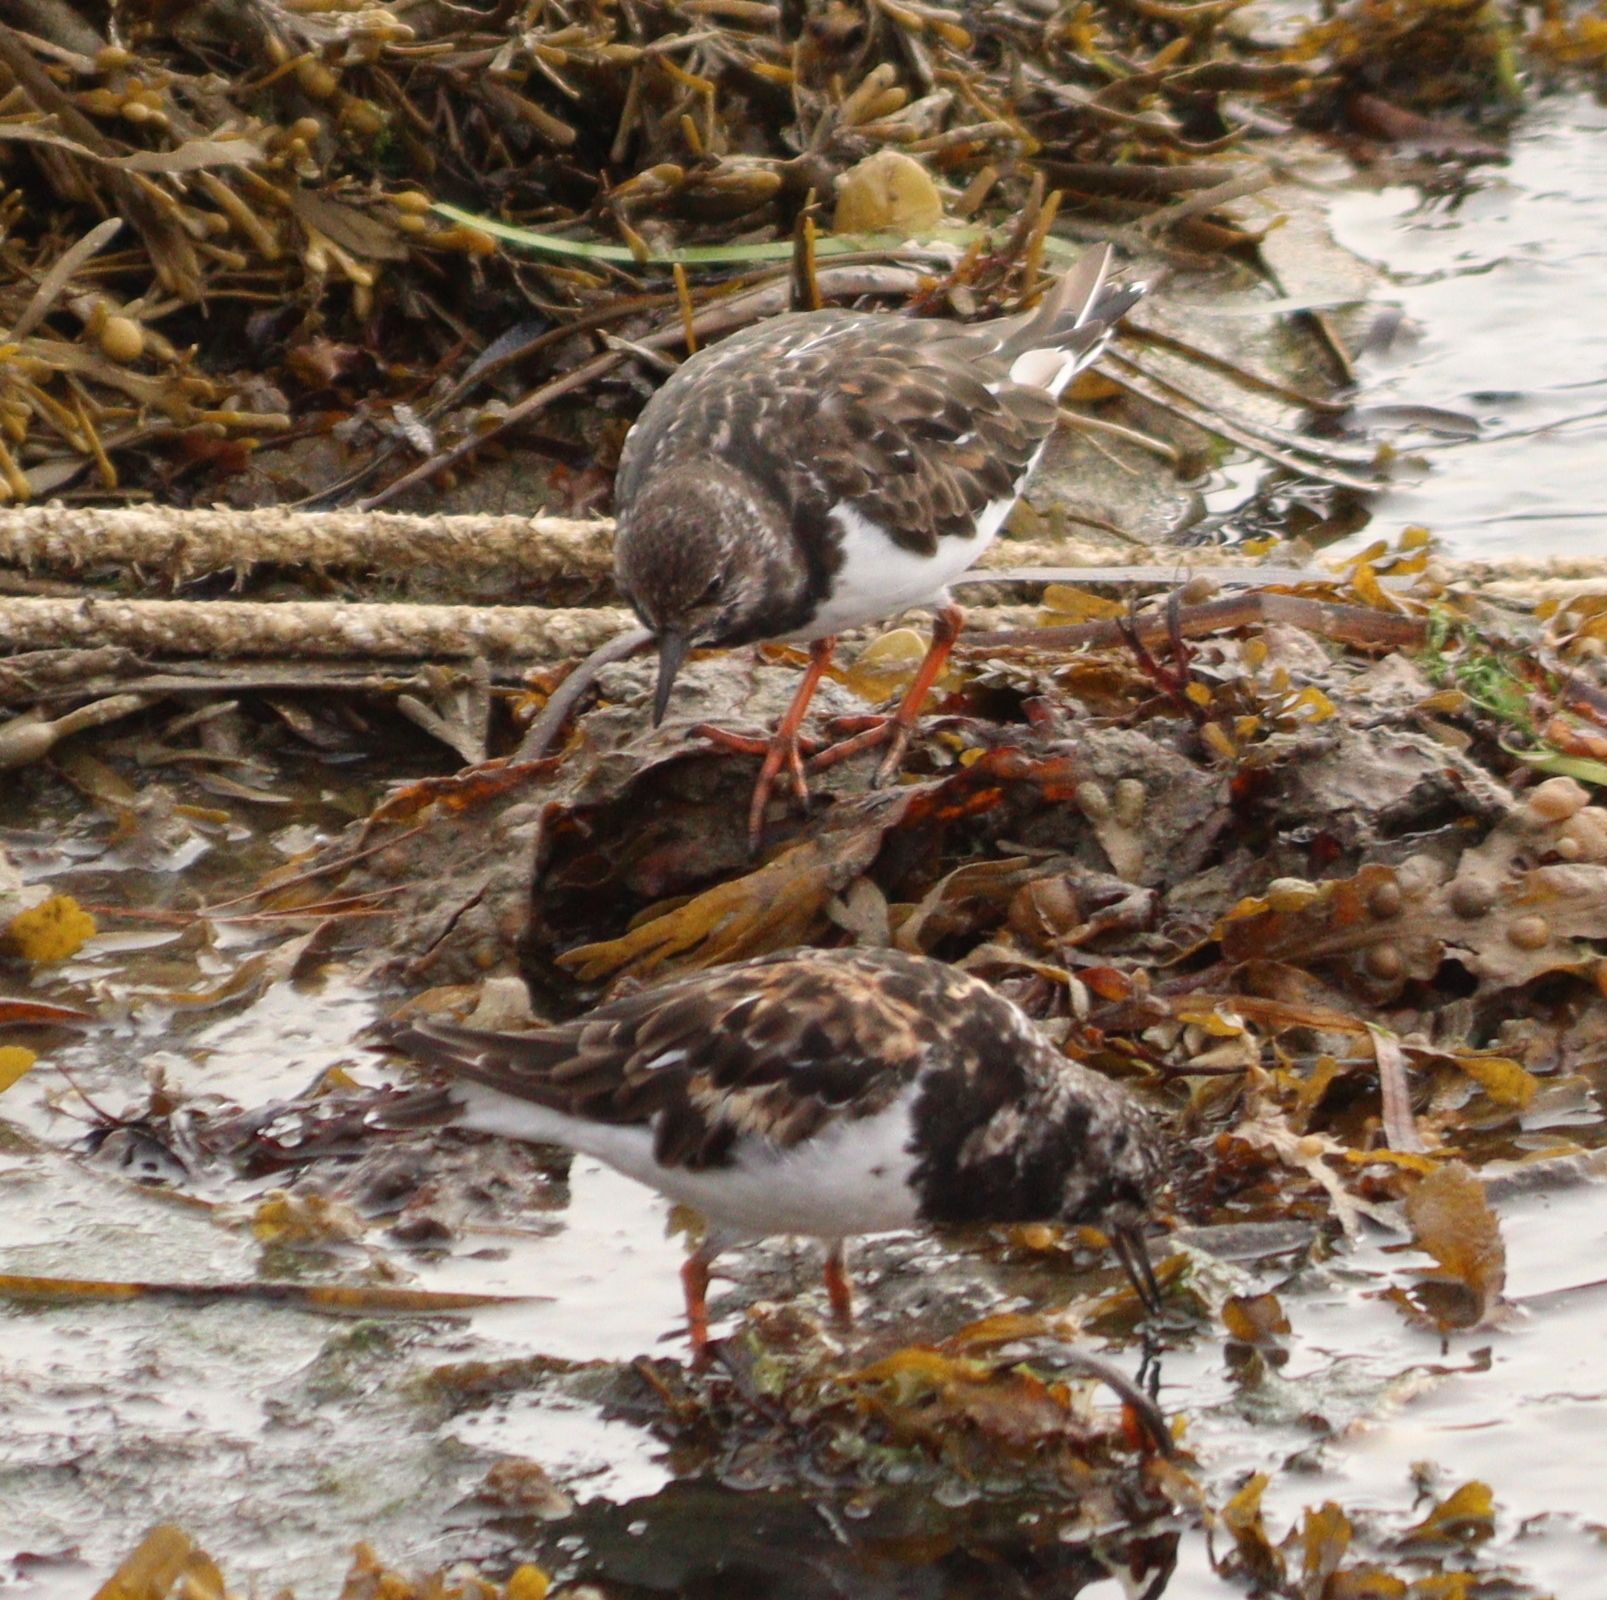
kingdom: Animalia
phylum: Chordata
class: Aves
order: Charadriiformes
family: Scolopacidae
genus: Arenaria
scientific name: Arenaria interpres
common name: Ruddy turnstone
